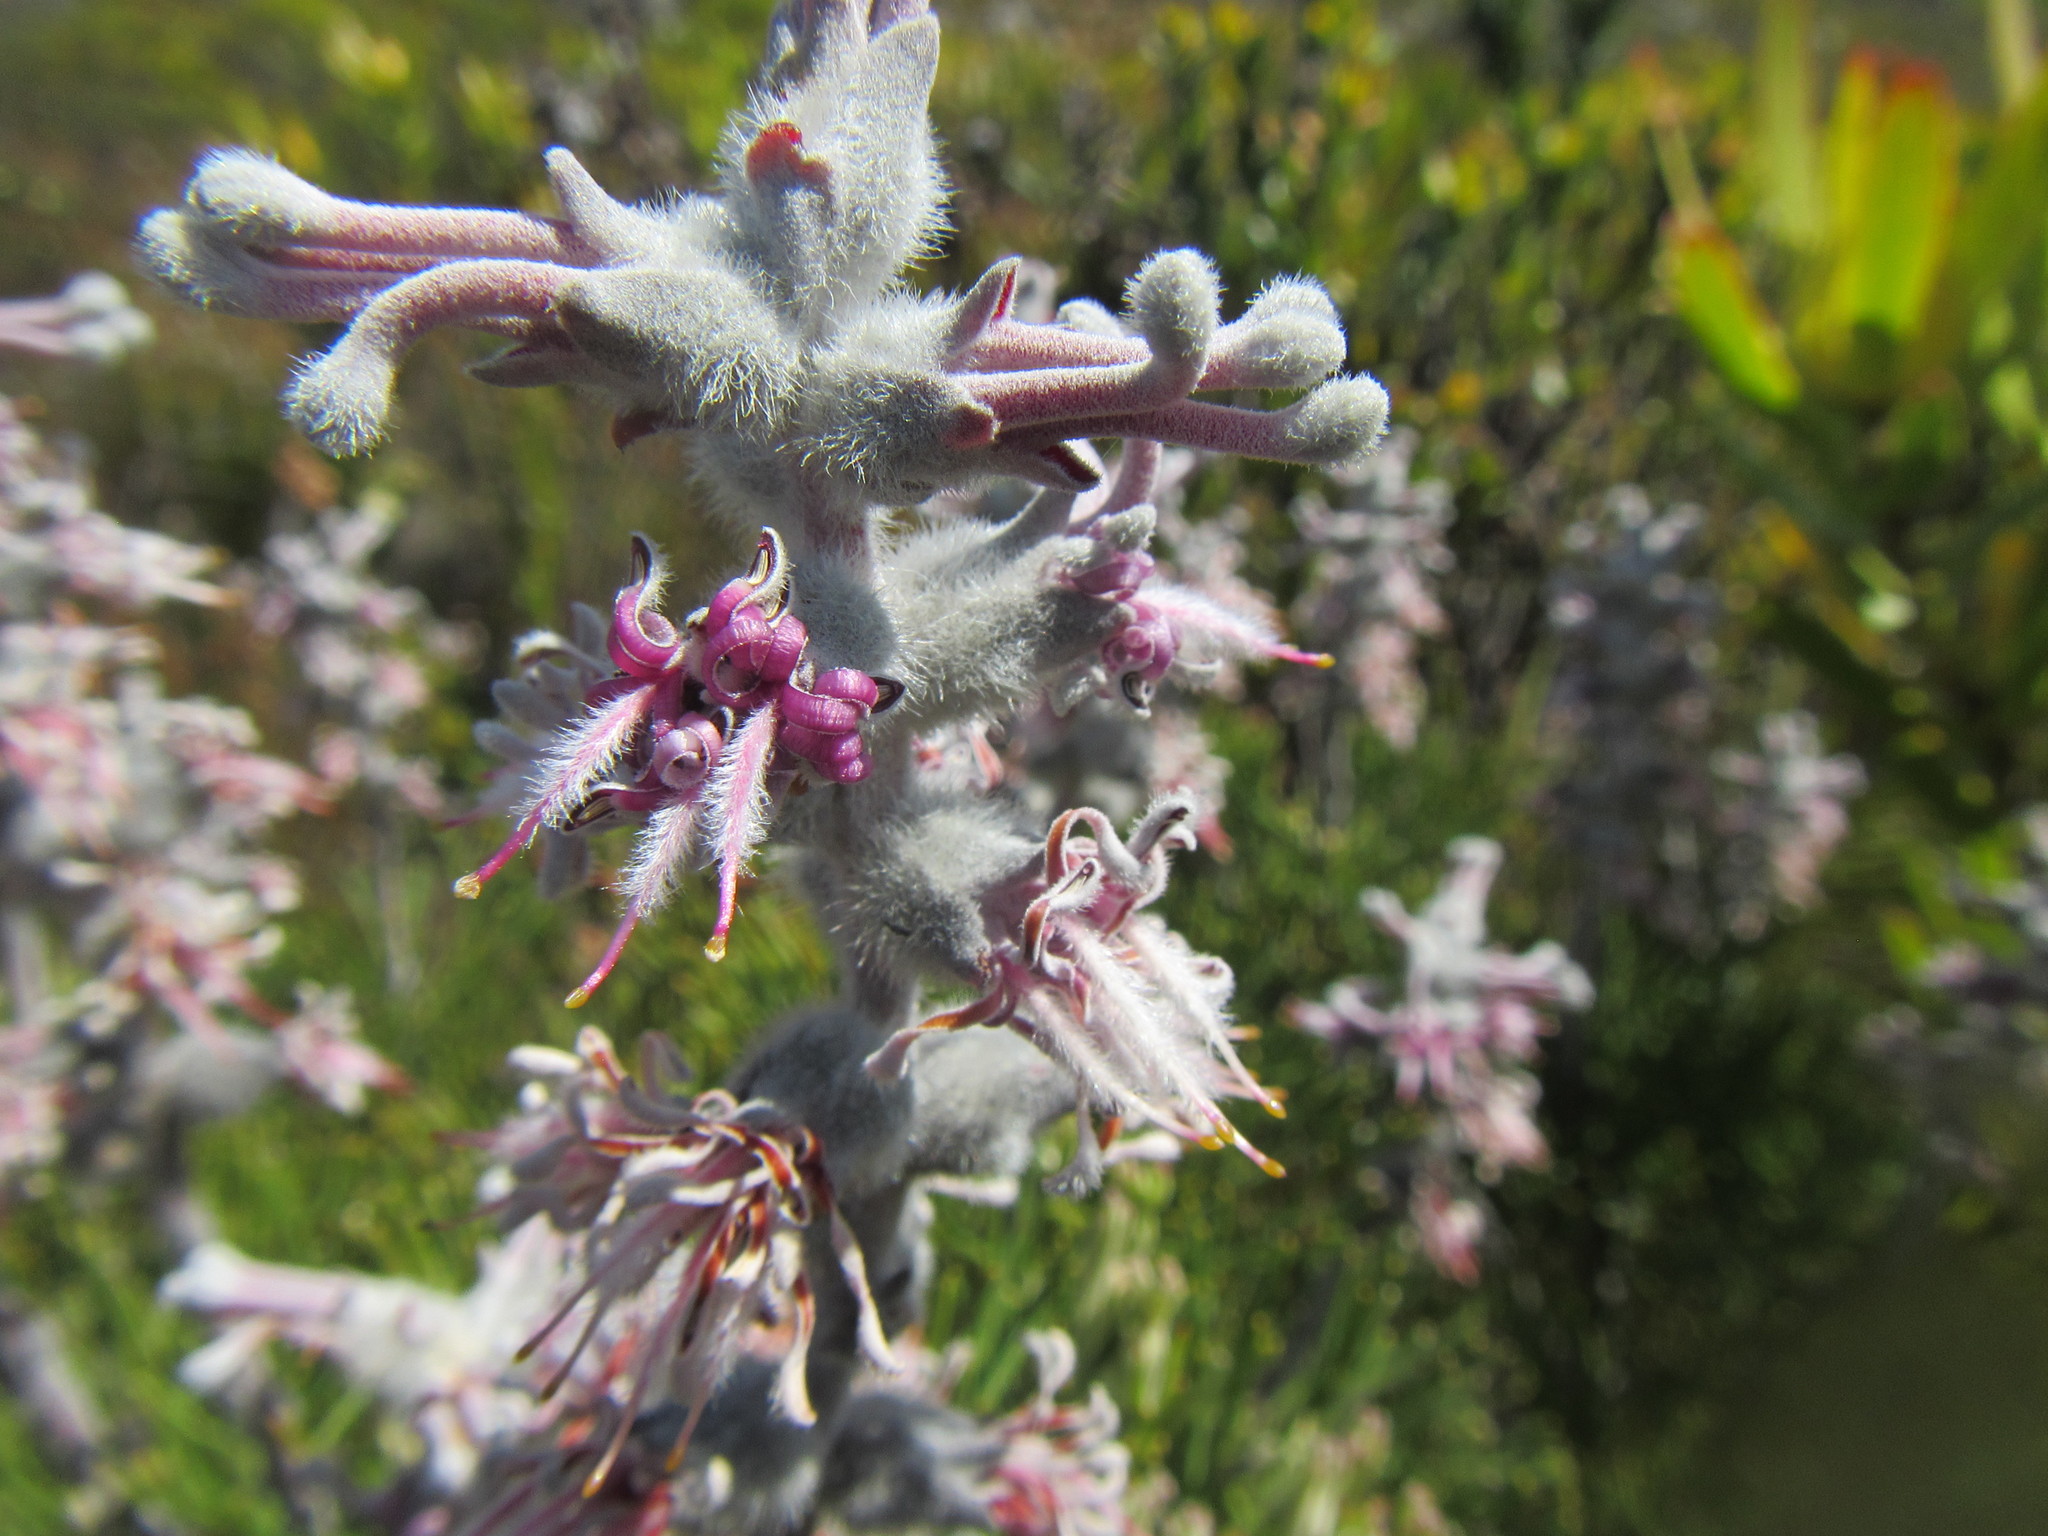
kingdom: Plantae
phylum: Tracheophyta
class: Magnoliopsida
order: Proteales
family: Proteaceae
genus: Paranomus
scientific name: Paranomus spicatus
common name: Kogelberg sceptre
